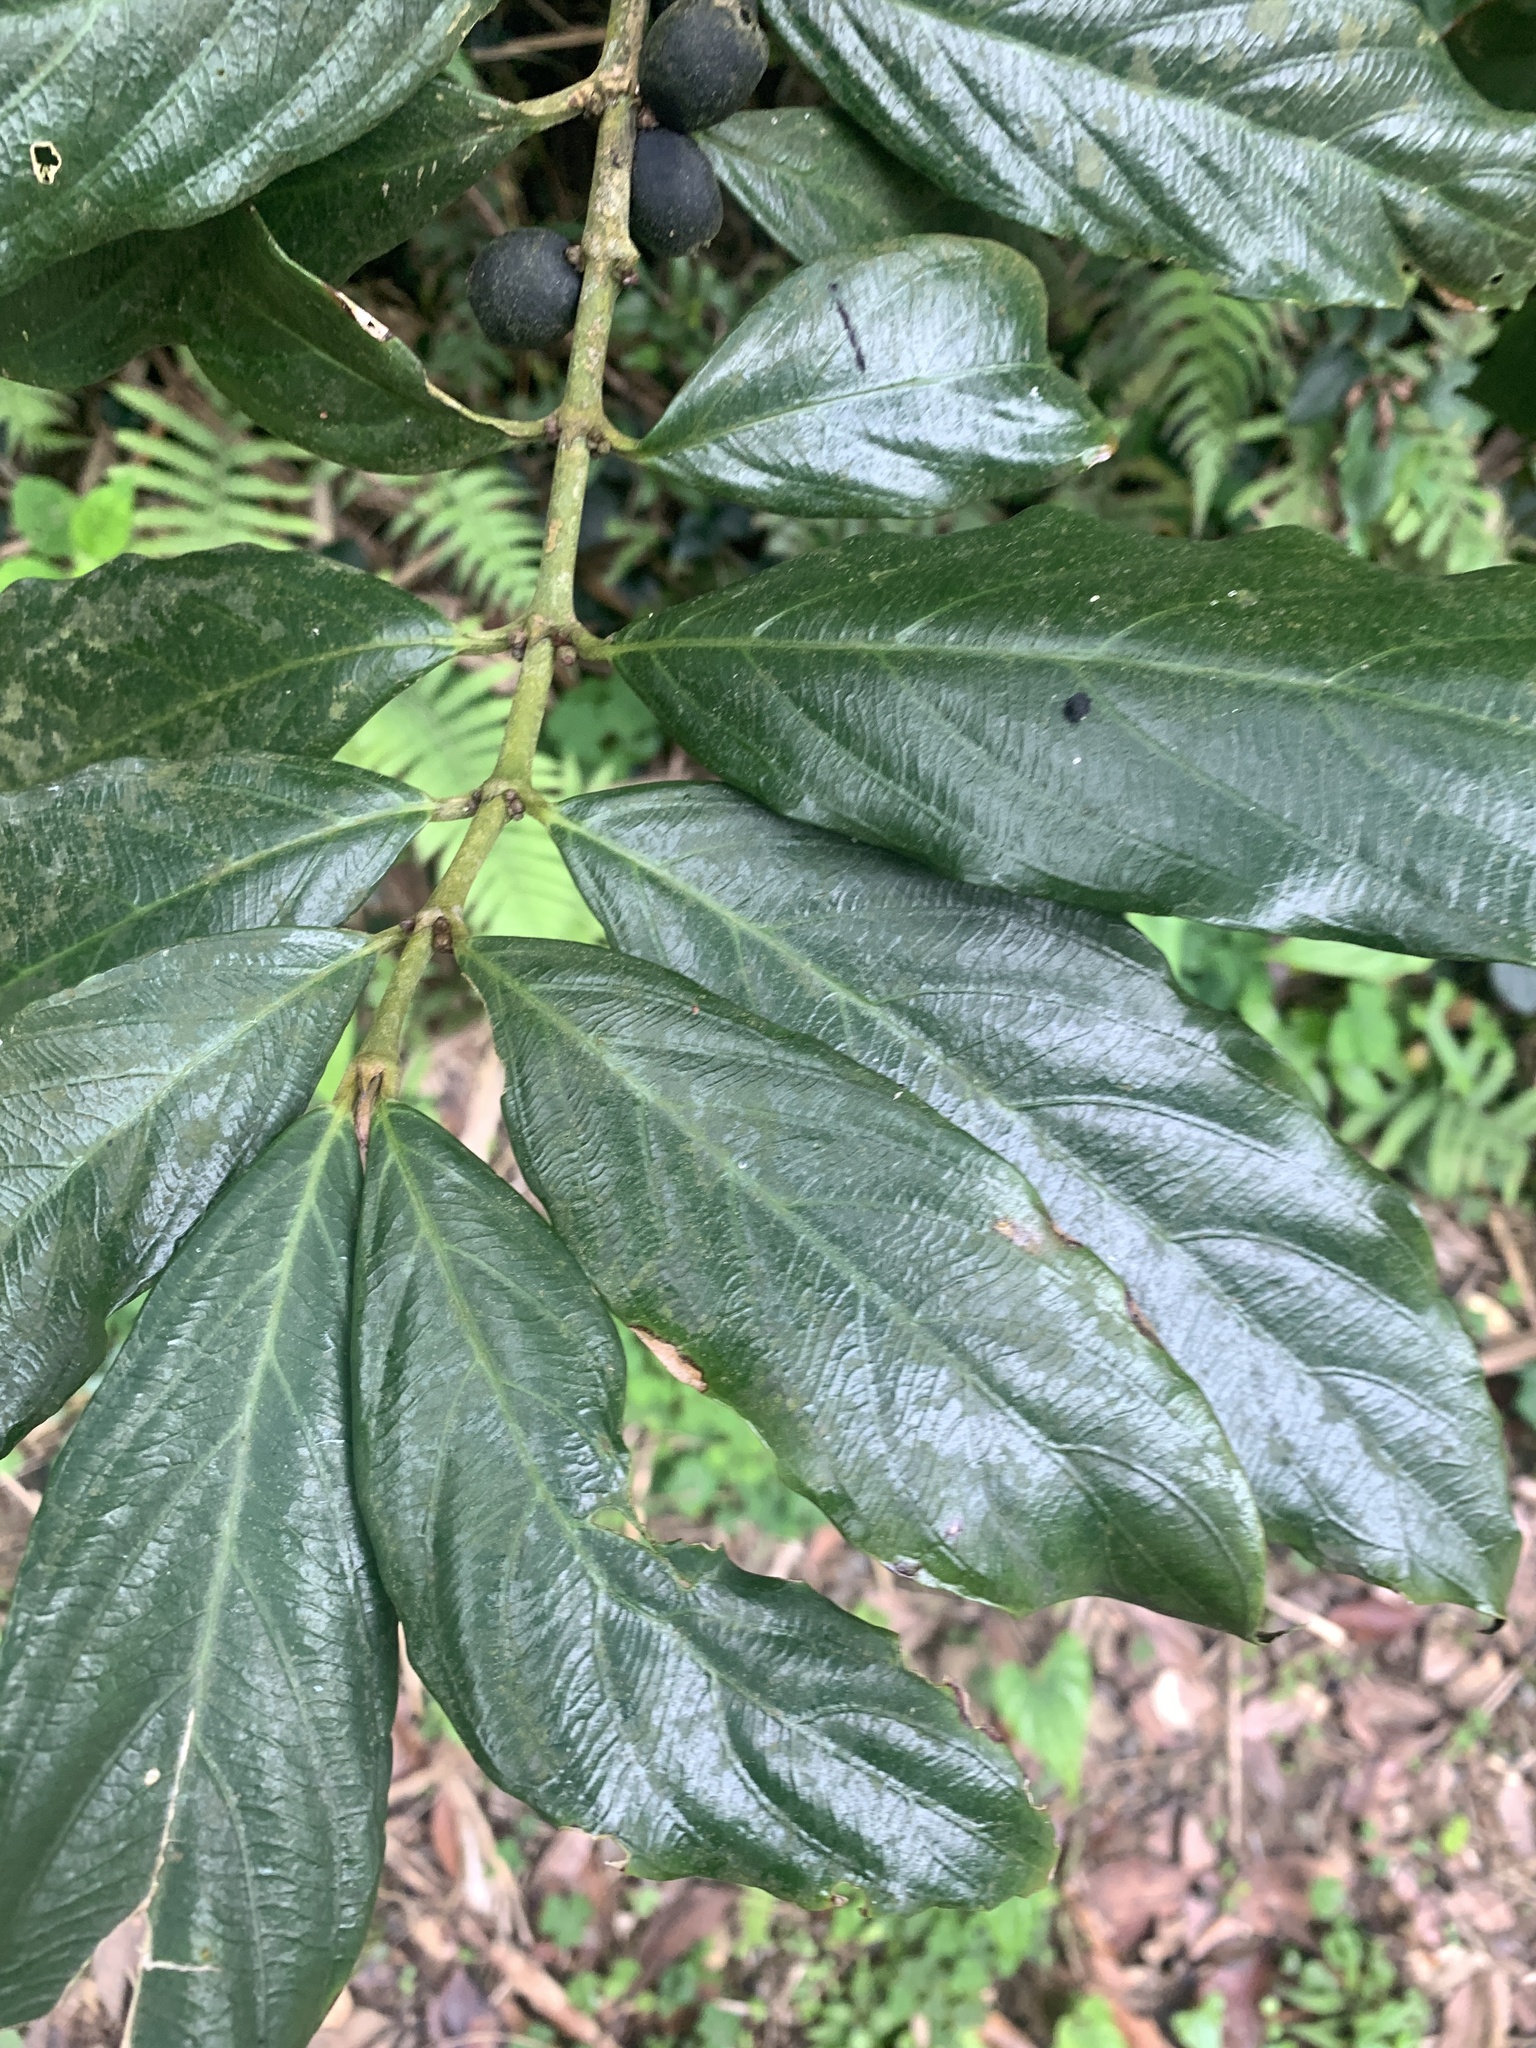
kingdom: Plantae
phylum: Tracheophyta
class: Magnoliopsida
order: Gentianales
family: Rubiaceae
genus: Lasianthus
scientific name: Lasianthus verticillatus
